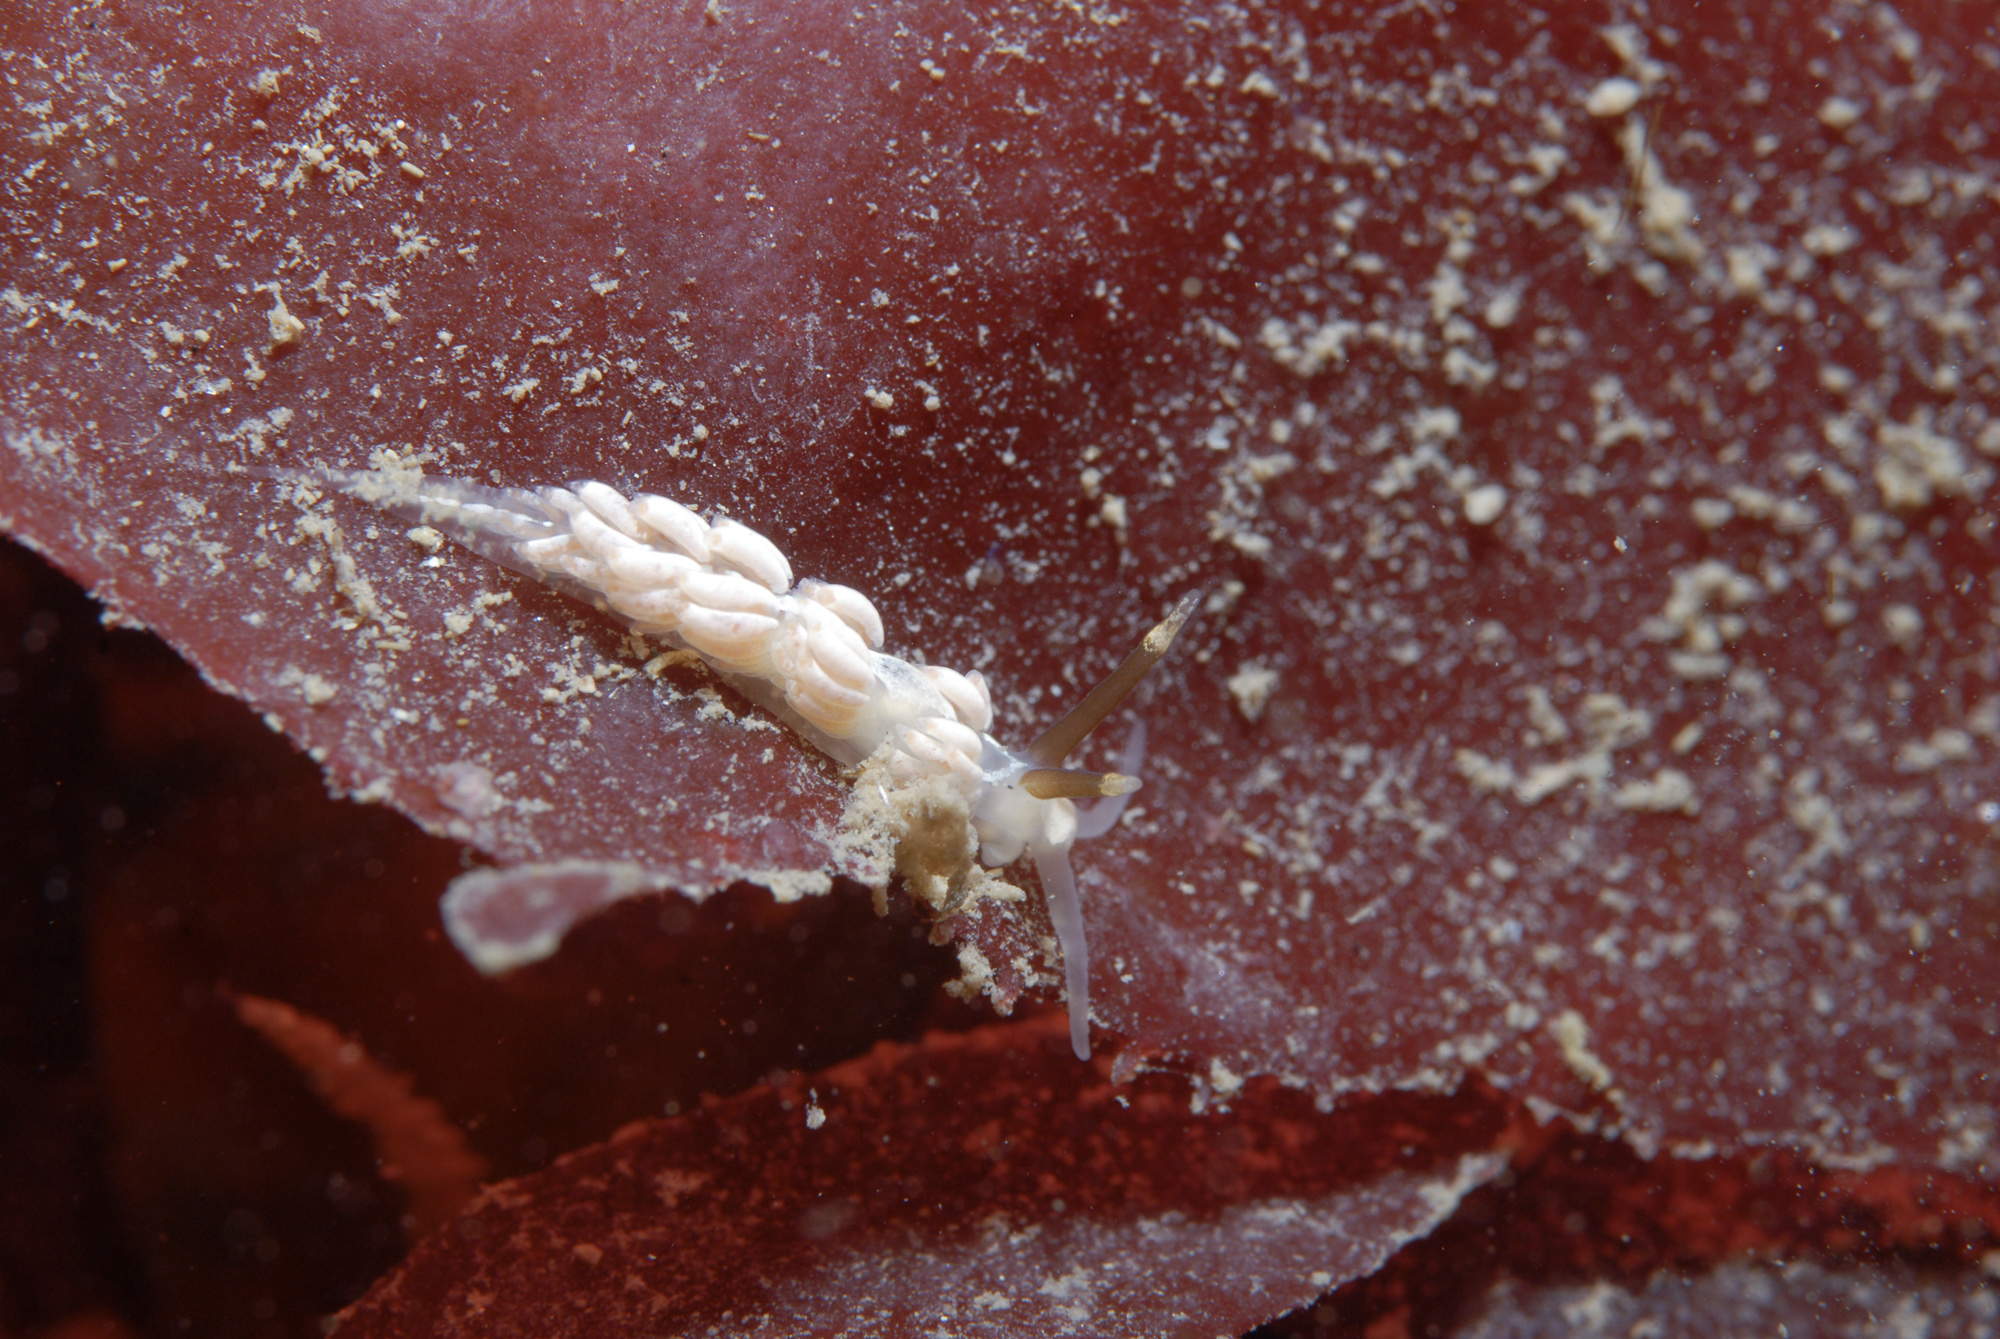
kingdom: Animalia
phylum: Mollusca
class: Gastropoda
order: Nudibranchia
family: Facelinidae
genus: Favorinus
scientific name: Favorinus branchialis
